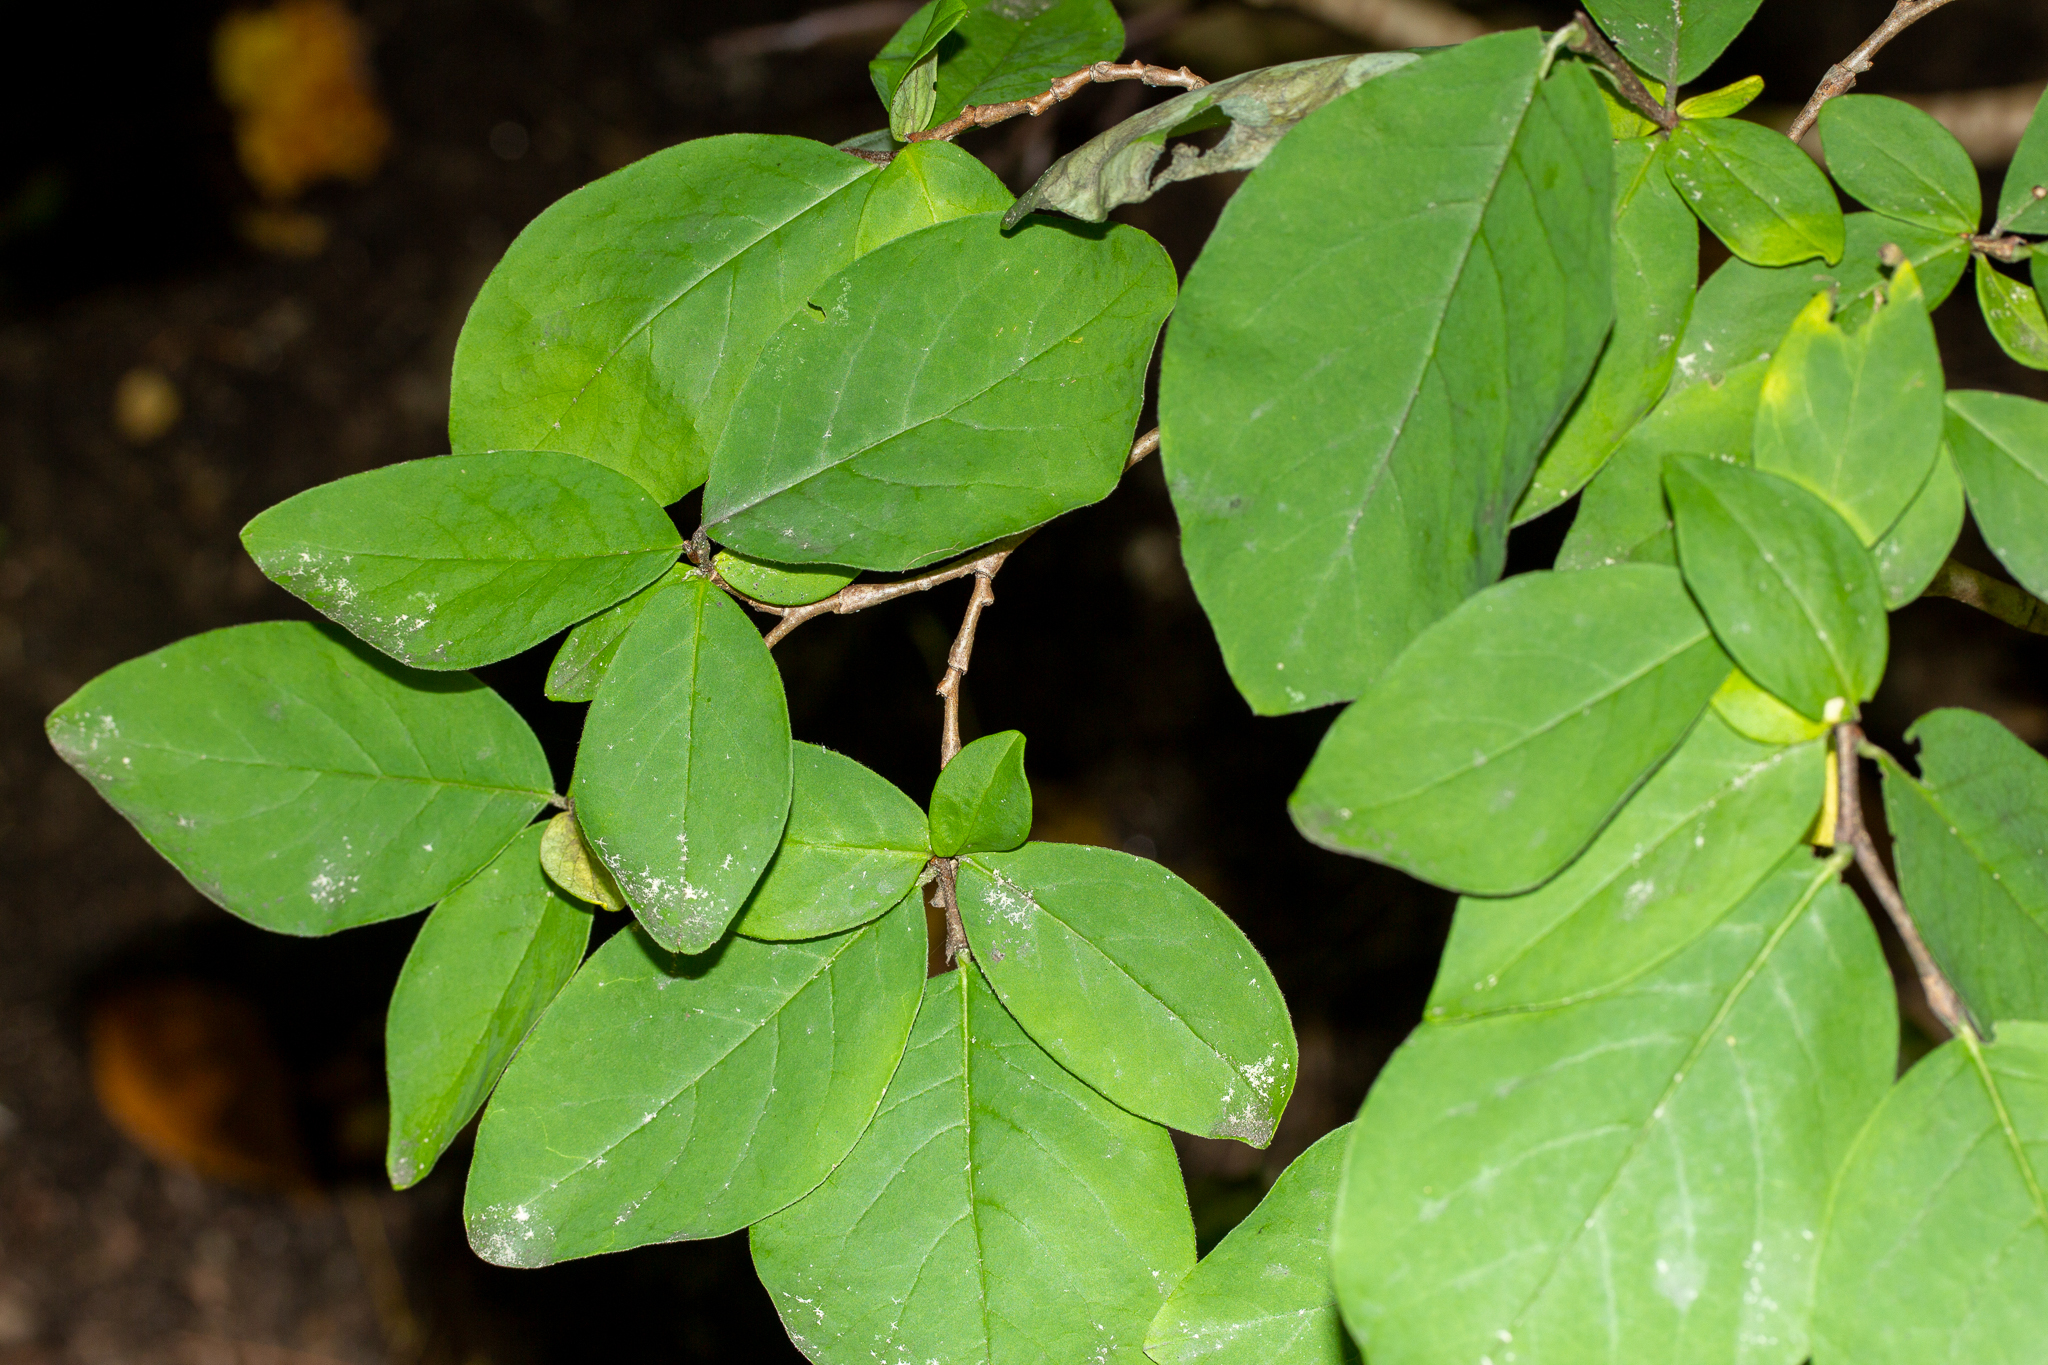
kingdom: Plantae
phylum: Tracheophyta
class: Magnoliopsida
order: Malvales
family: Thymelaeaceae
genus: Dirca
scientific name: Dirca palustris
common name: Leatherwood
